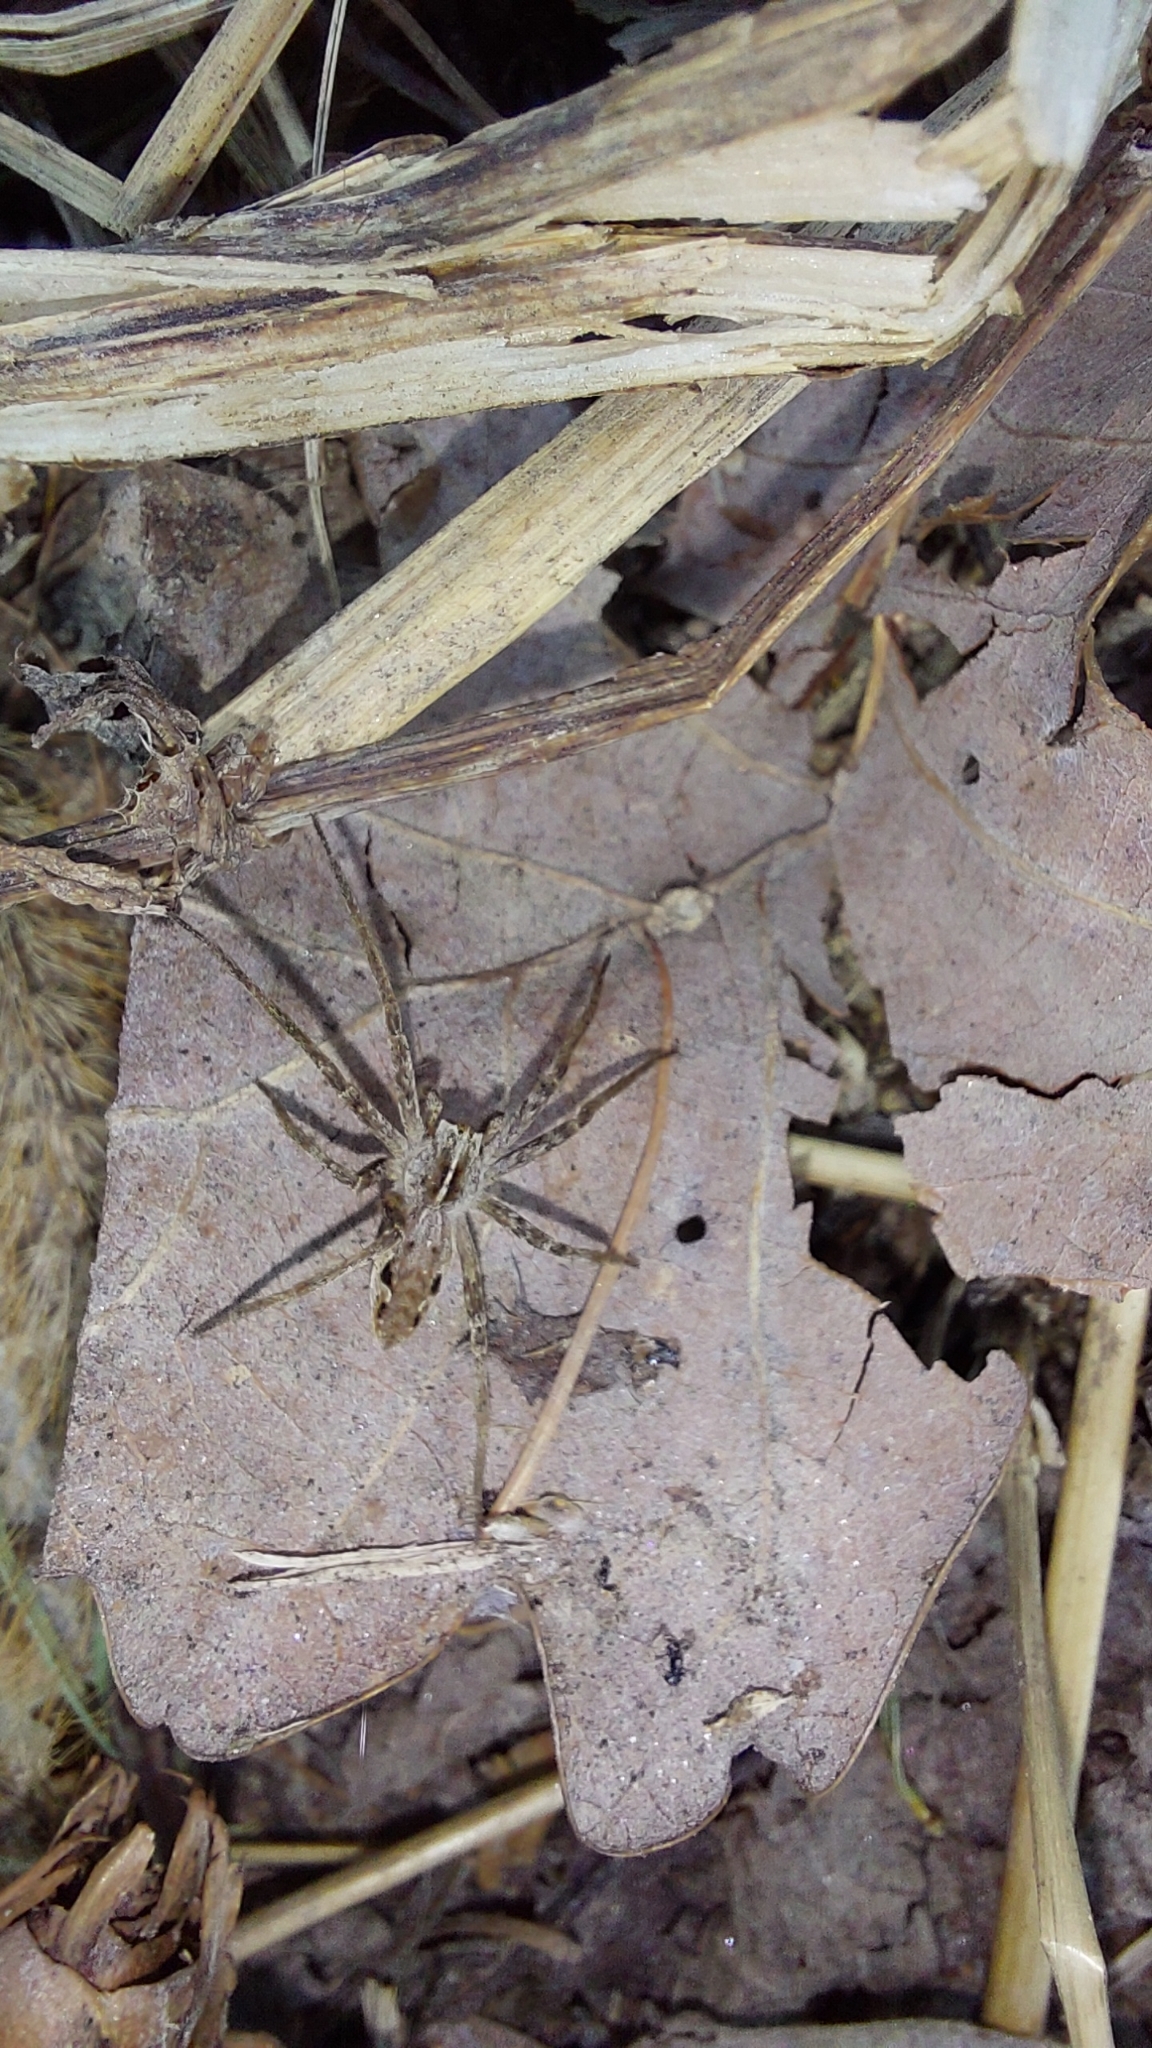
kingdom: Animalia
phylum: Arthropoda
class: Arachnida
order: Araneae
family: Pisauridae
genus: Pisaura
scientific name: Pisaura mirabilis
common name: Tent spider
